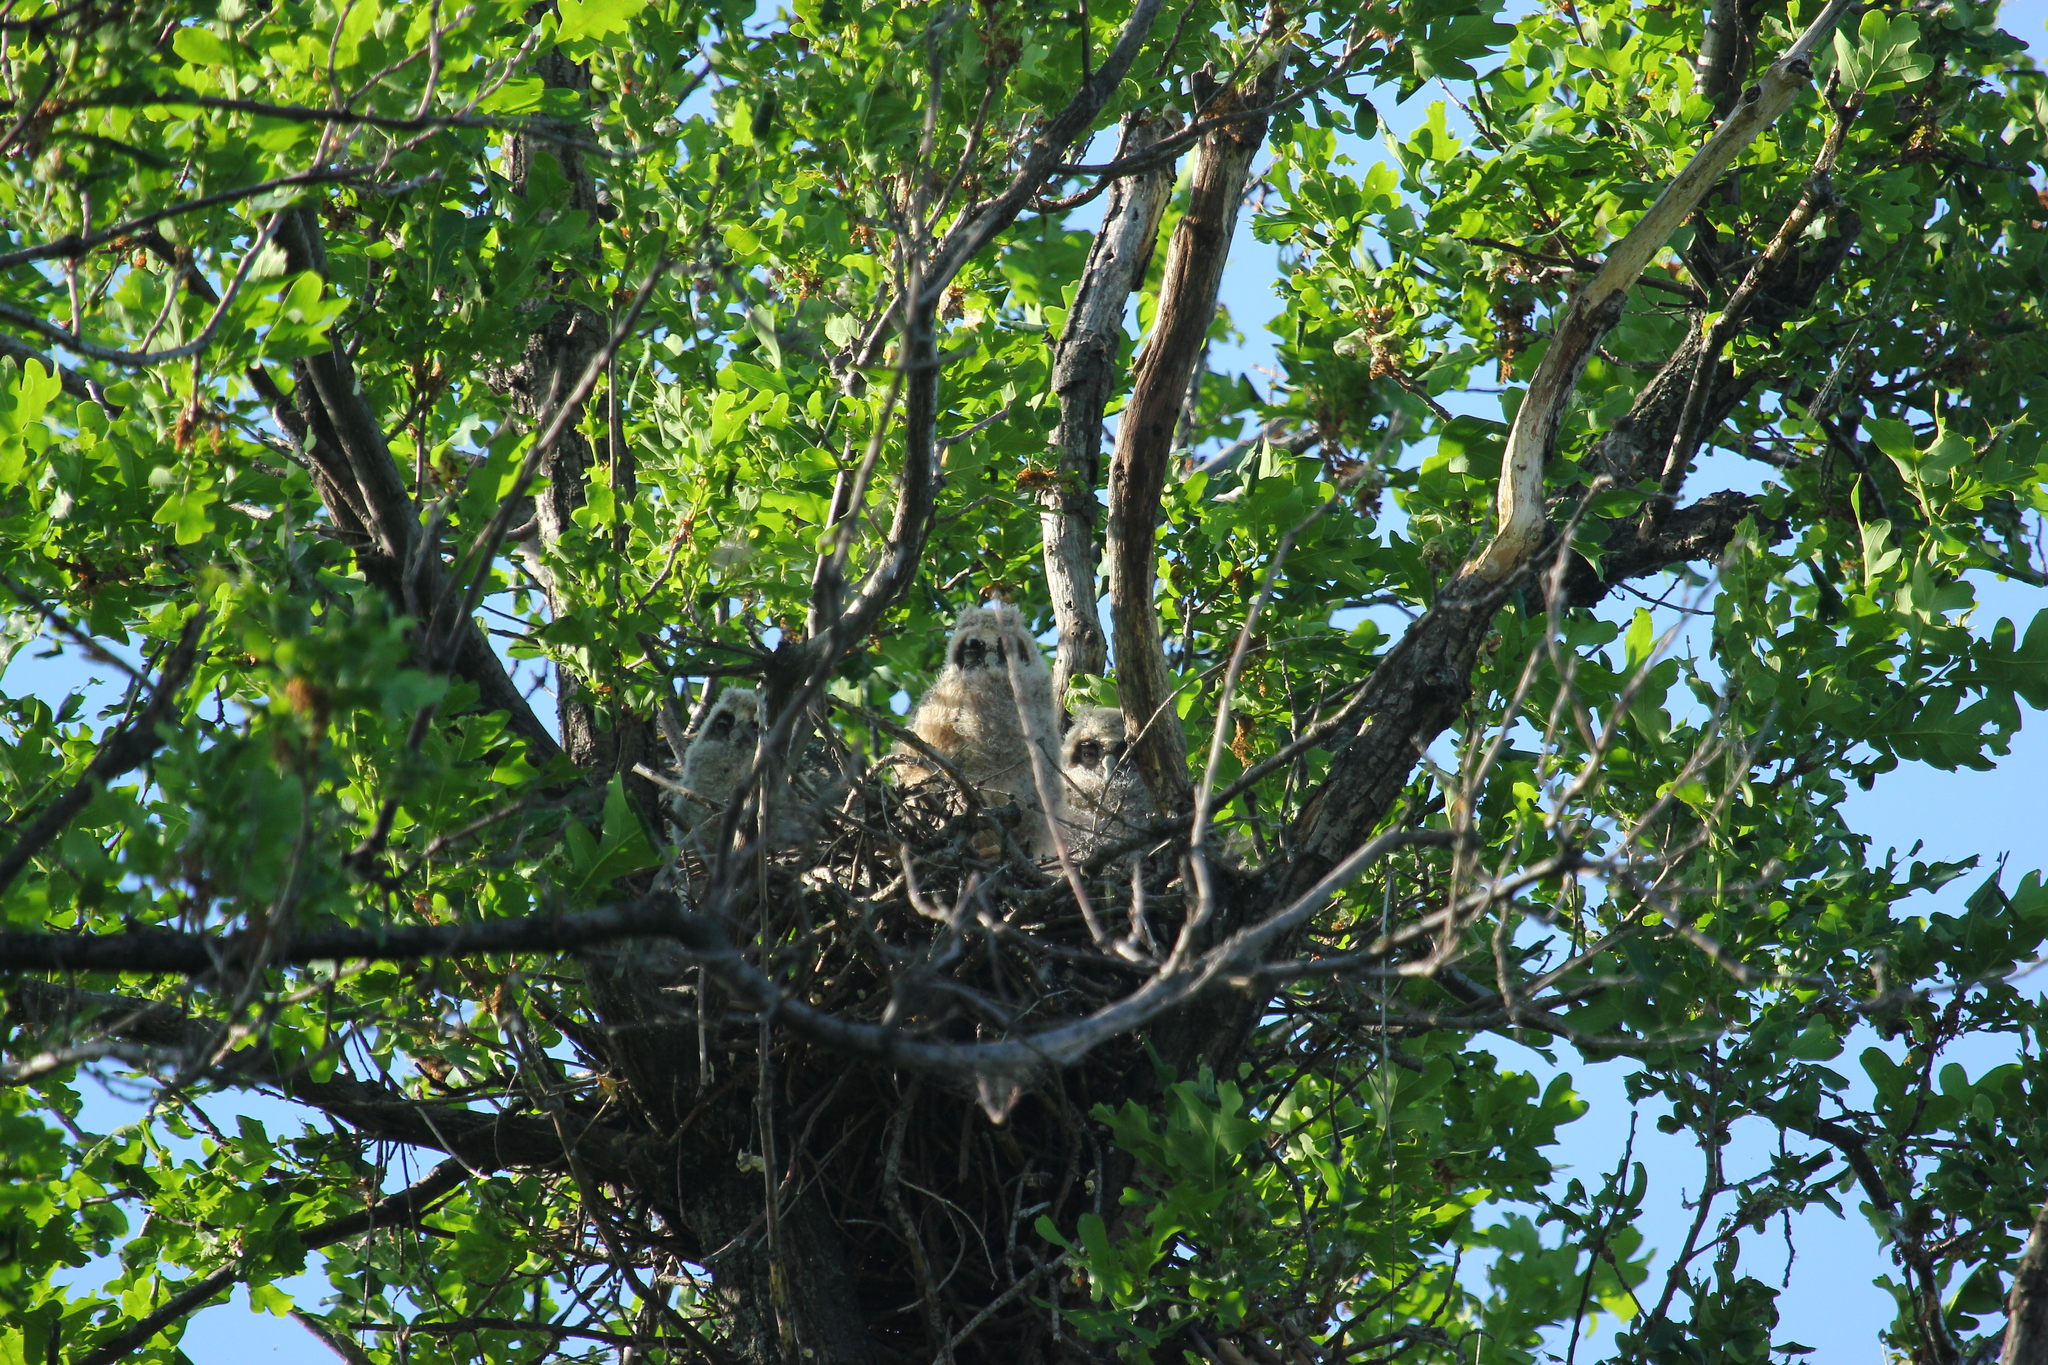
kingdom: Animalia
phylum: Chordata
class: Aves
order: Strigiformes
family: Strigidae
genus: Asio
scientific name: Asio otus
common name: Long-eared owl
